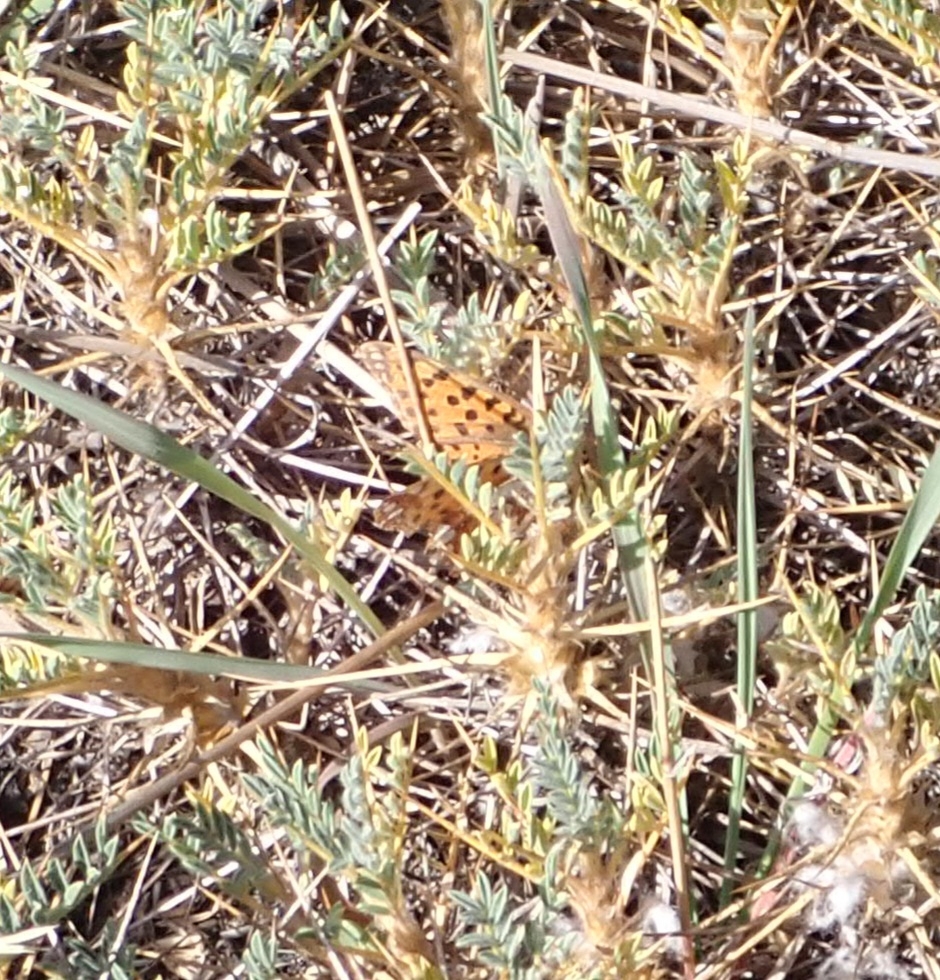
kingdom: Animalia
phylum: Arthropoda
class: Insecta
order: Lepidoptera
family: Nymphalidae
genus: Issoria
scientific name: Issoria lathonia
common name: Queen of spain fritillary
